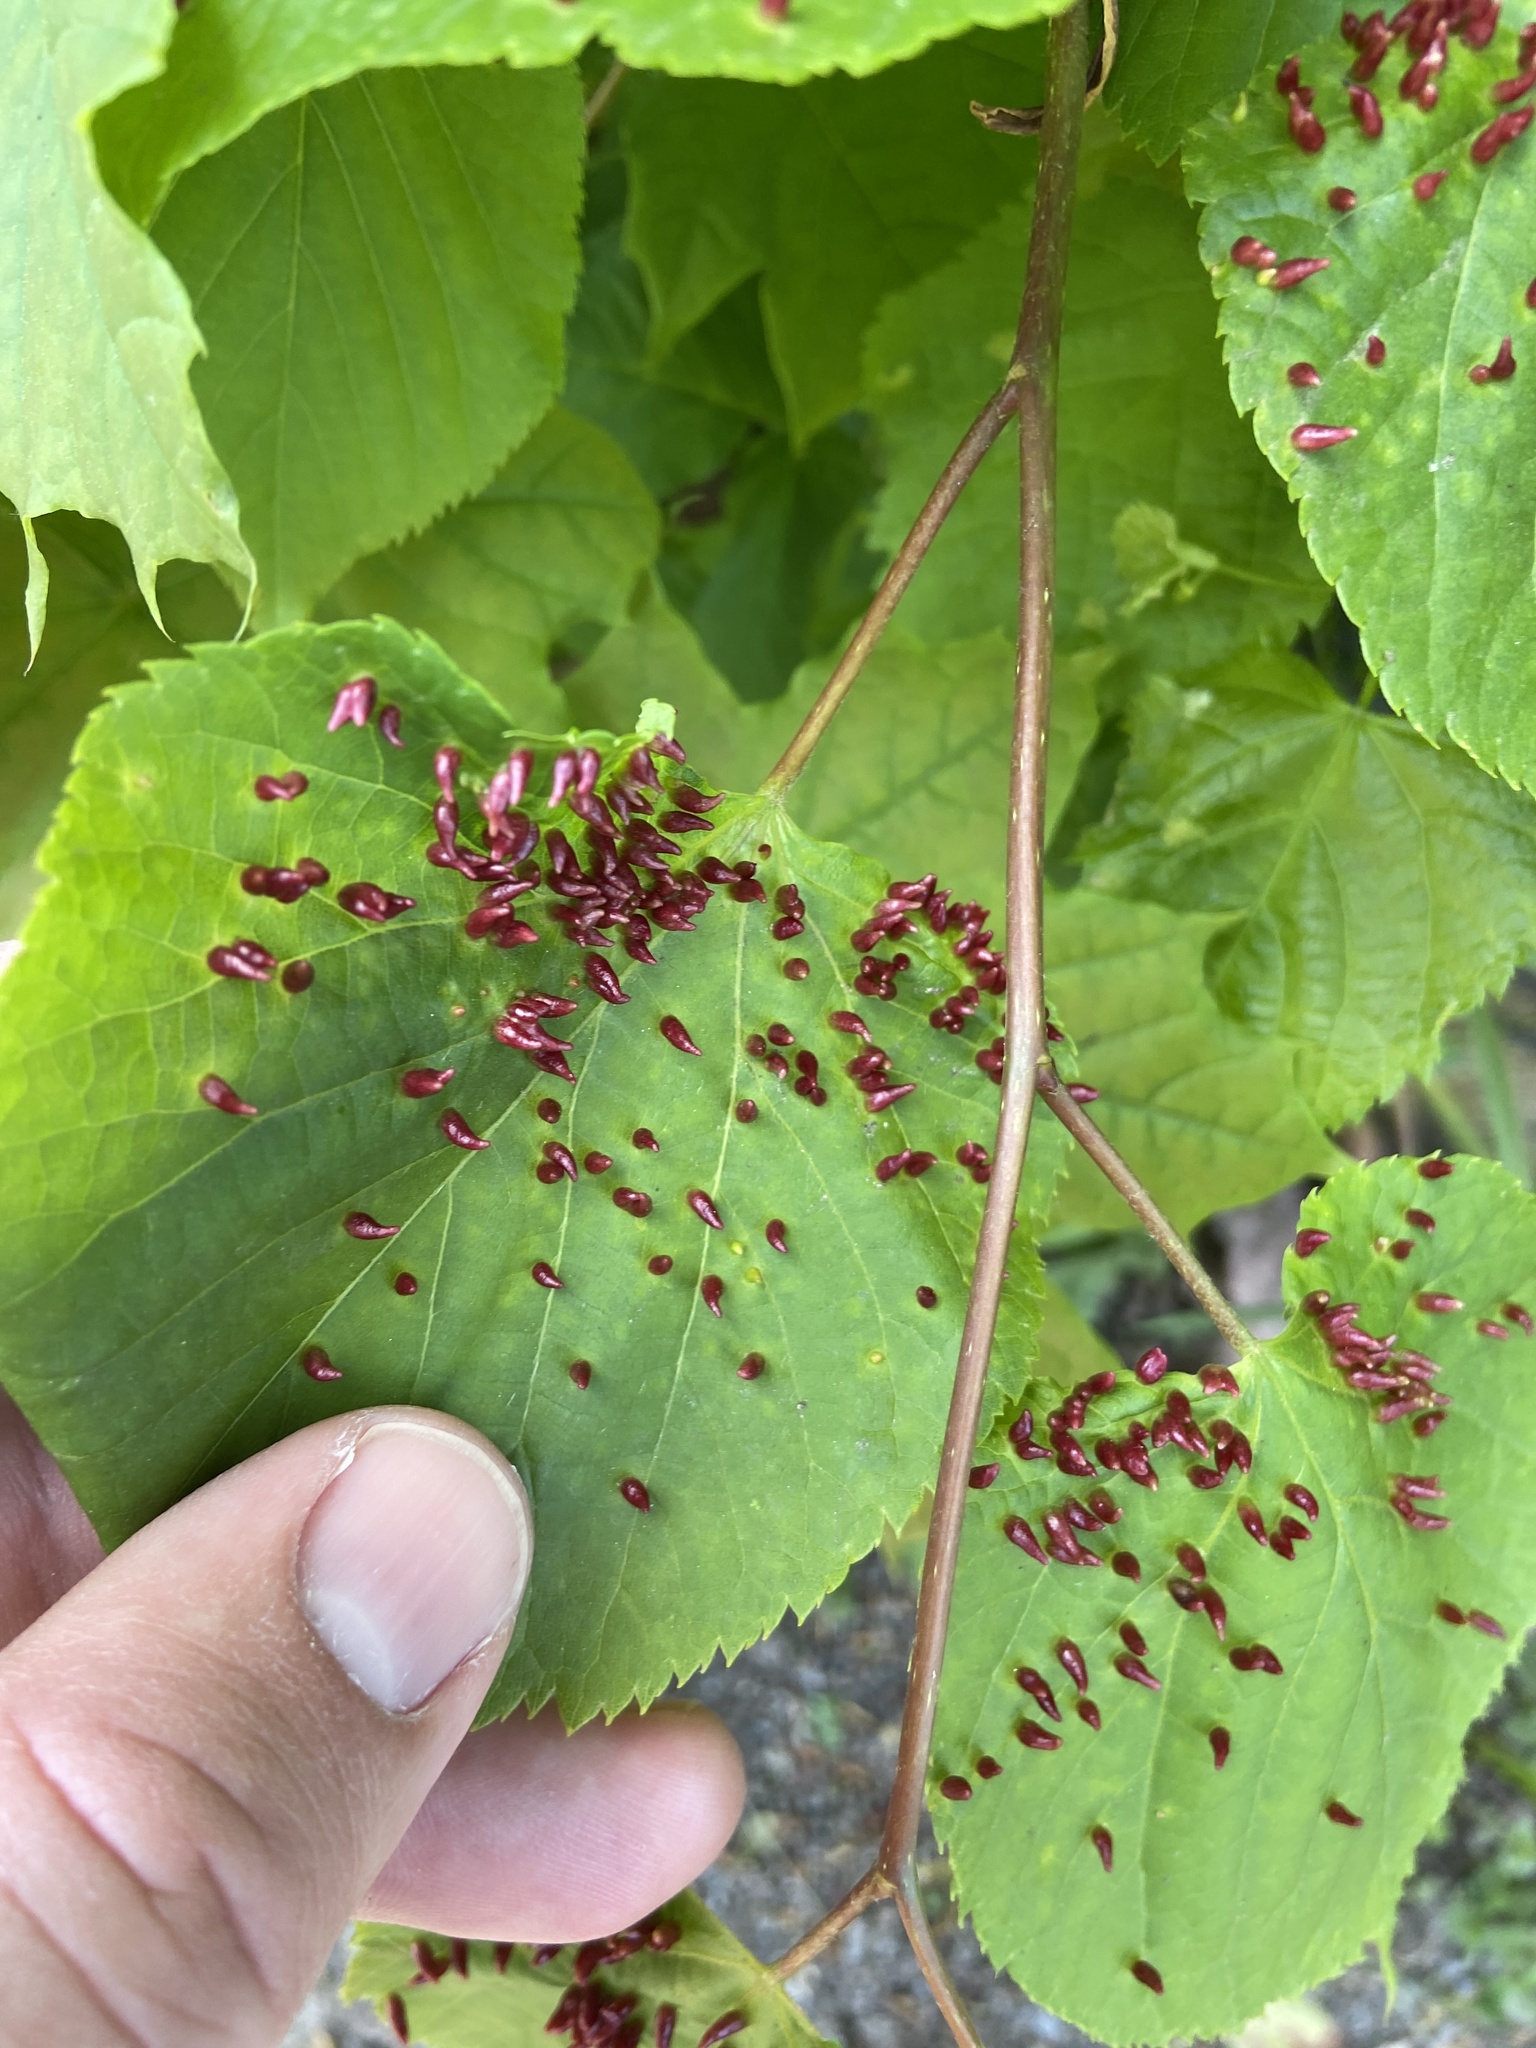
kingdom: Animalia
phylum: Arthropoda
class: Arachnida
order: Trombidiformes
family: Eriophyidae
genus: Eriophyes
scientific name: Eriophyes tiliae
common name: Red nail gall mite
